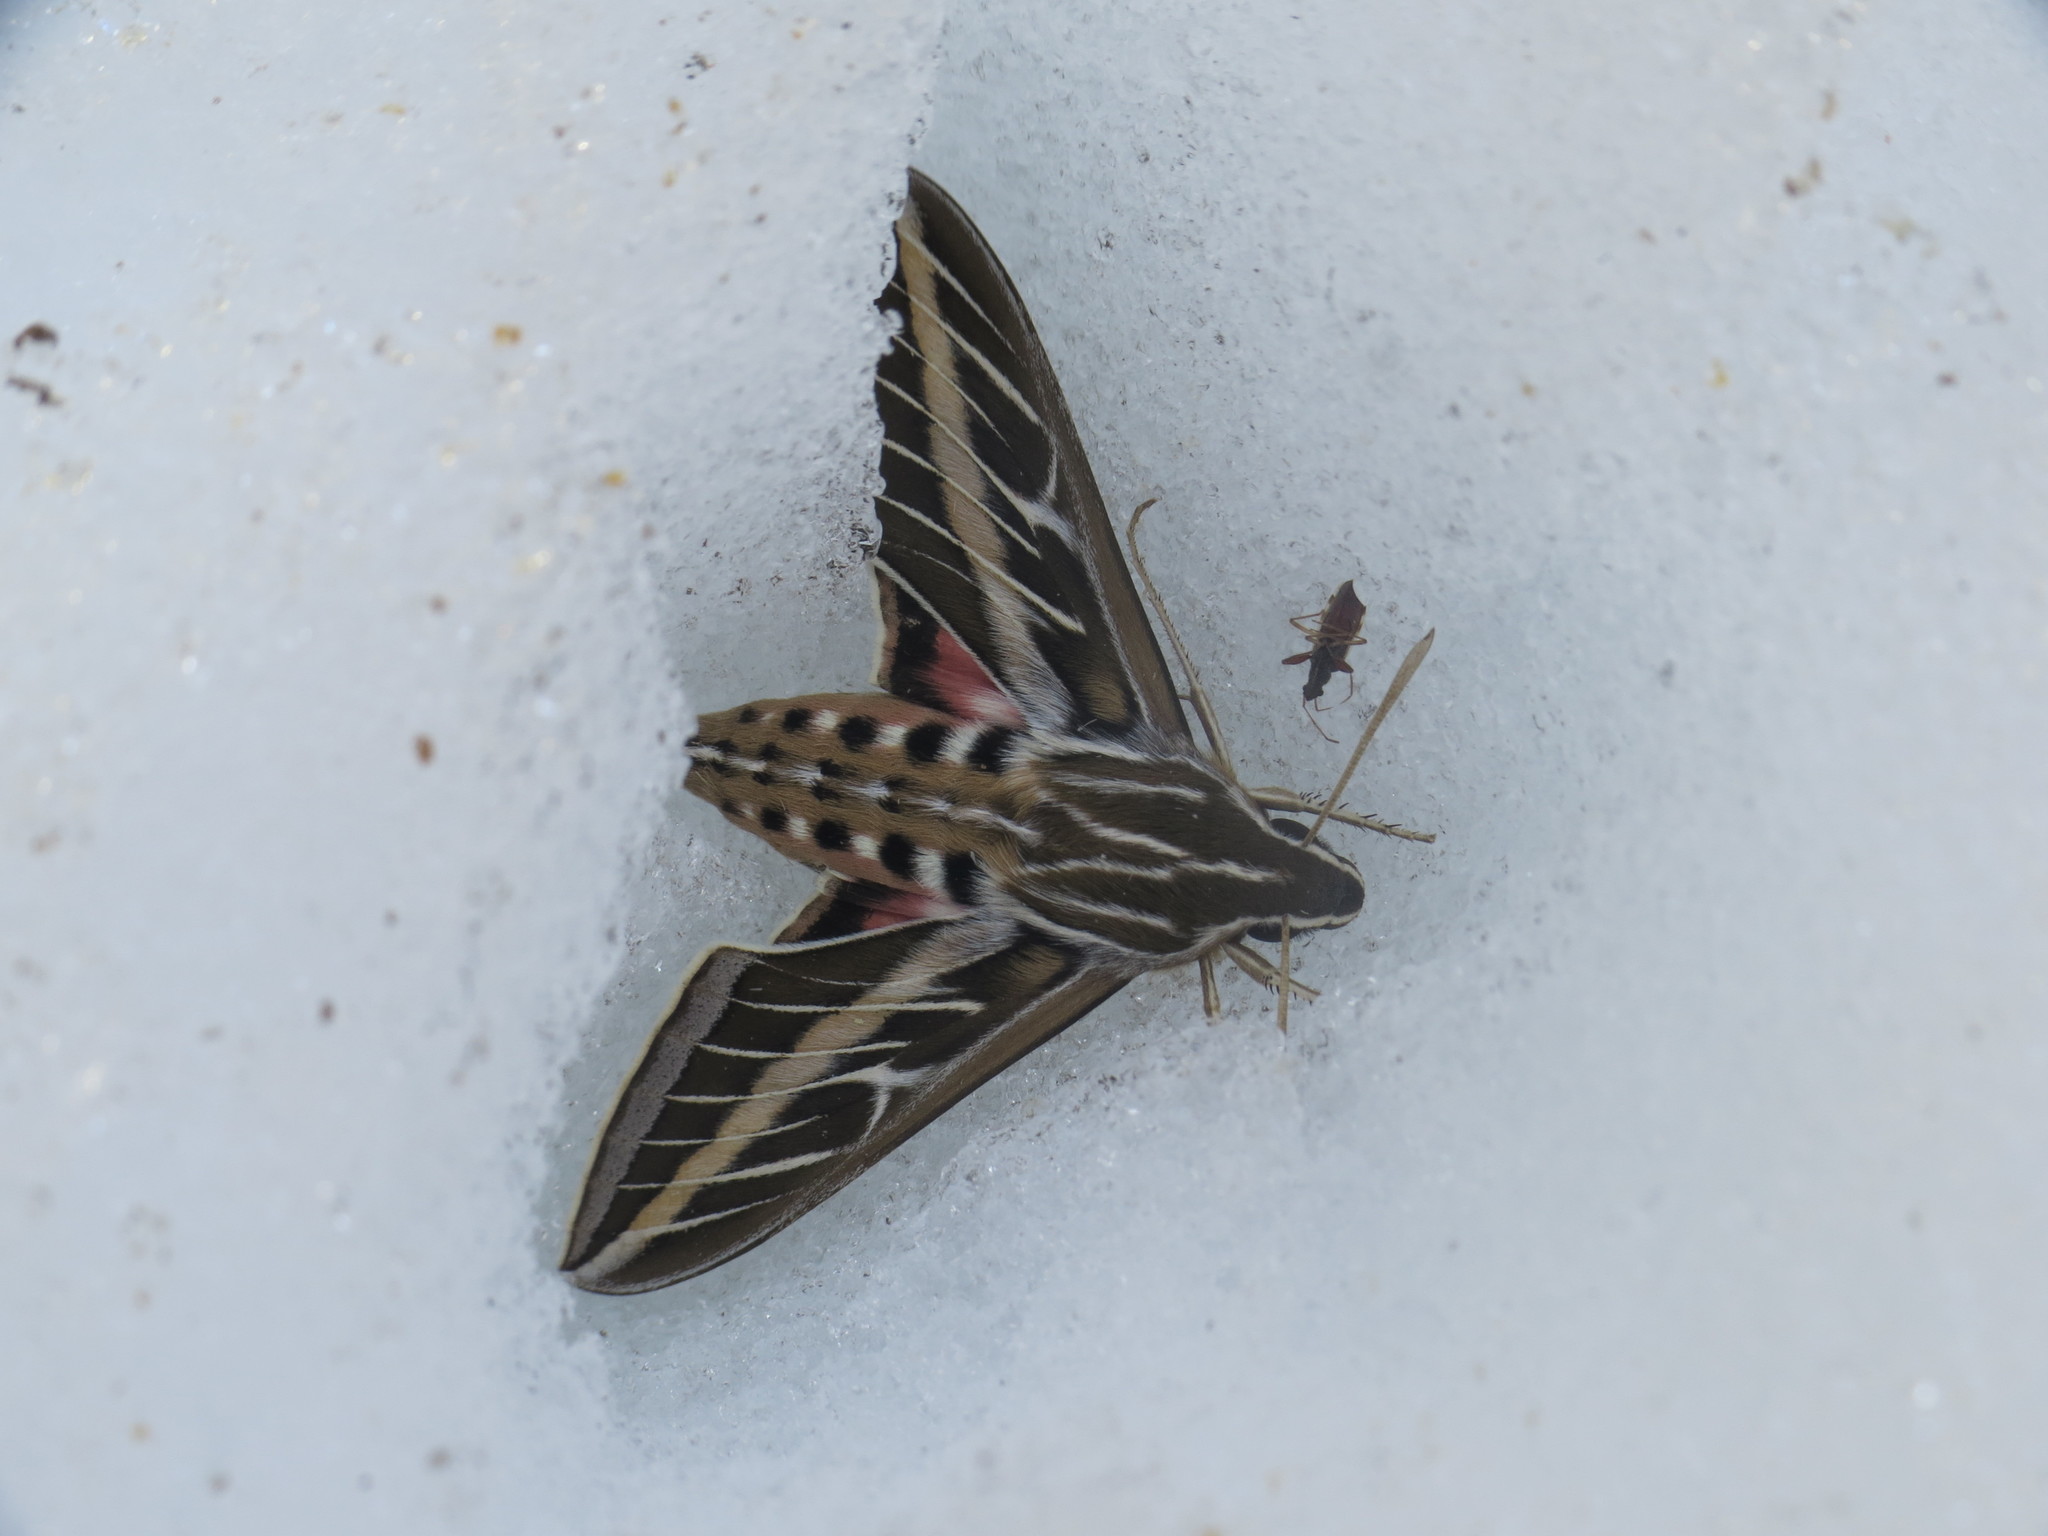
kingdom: Animalia
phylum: Arthropoda
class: Insecta
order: Lepidoptera
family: Sphingidae
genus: Hyles
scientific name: Hyles lineata
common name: White-lined sphinx
